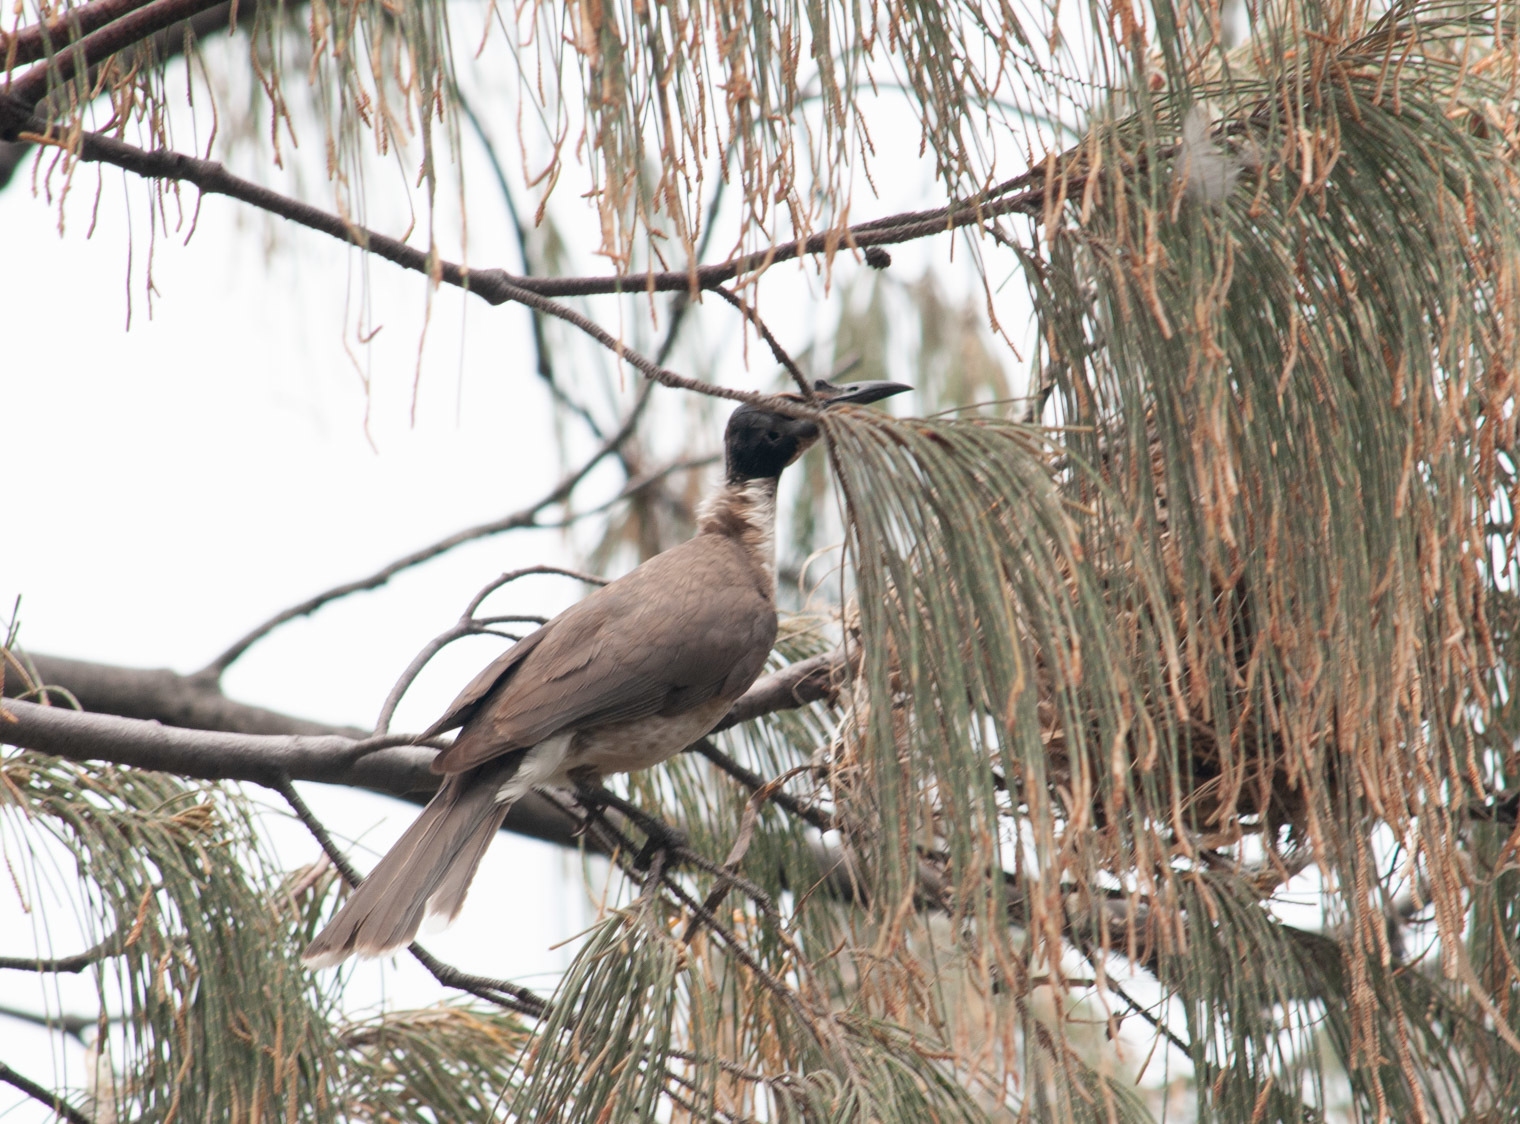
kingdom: Animalia
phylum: Chordata
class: Aves
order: Passeriformes
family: Meliphagidae
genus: Philemon
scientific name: Philemon corniculatus
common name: Noisy friarbird
